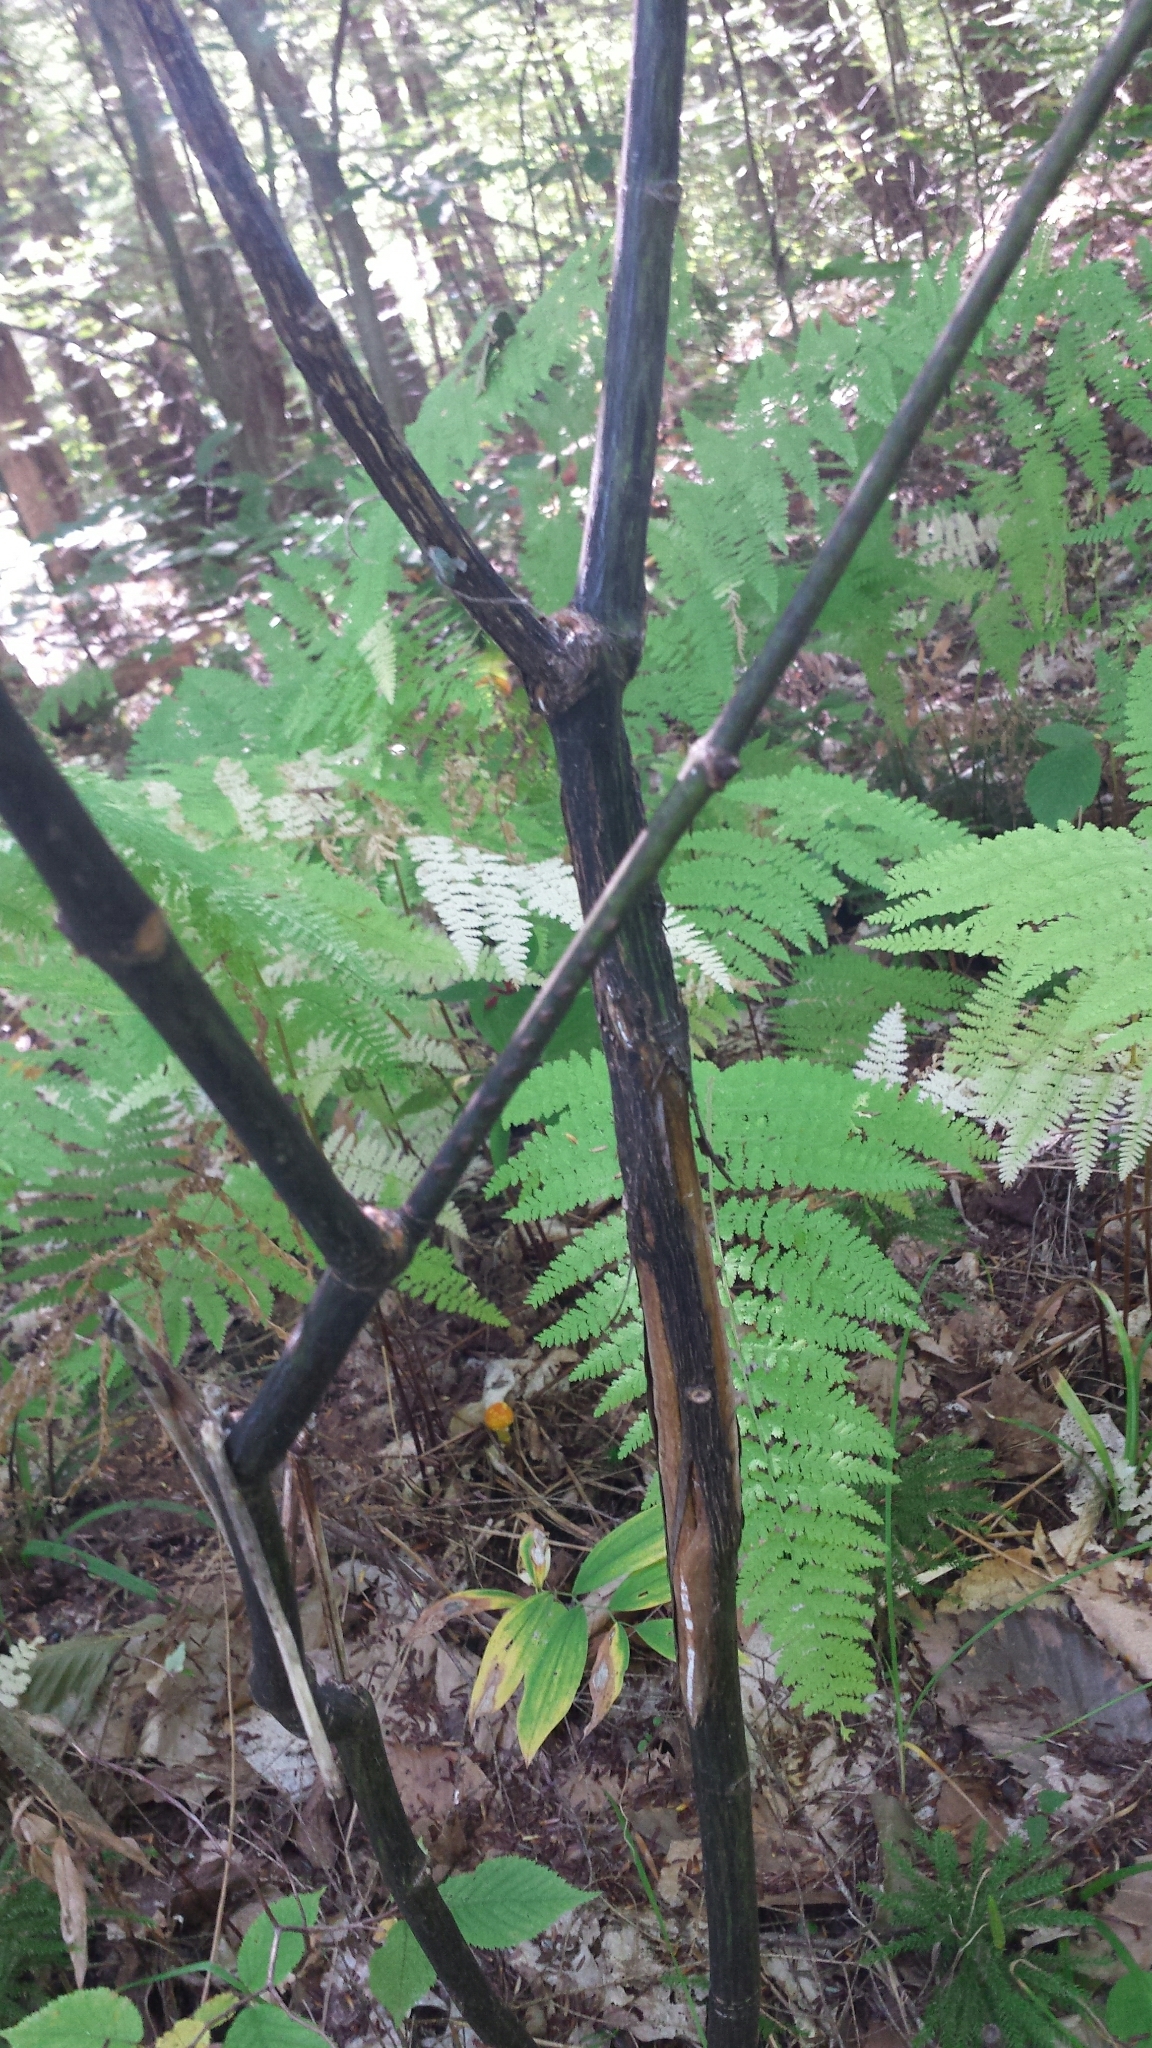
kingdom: Plantae
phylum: Tracheophyta
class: Magnoliopsida
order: Sapindales
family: Sapindaceae
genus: Acer
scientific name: Acer pensylvanicum
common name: Moosewood
